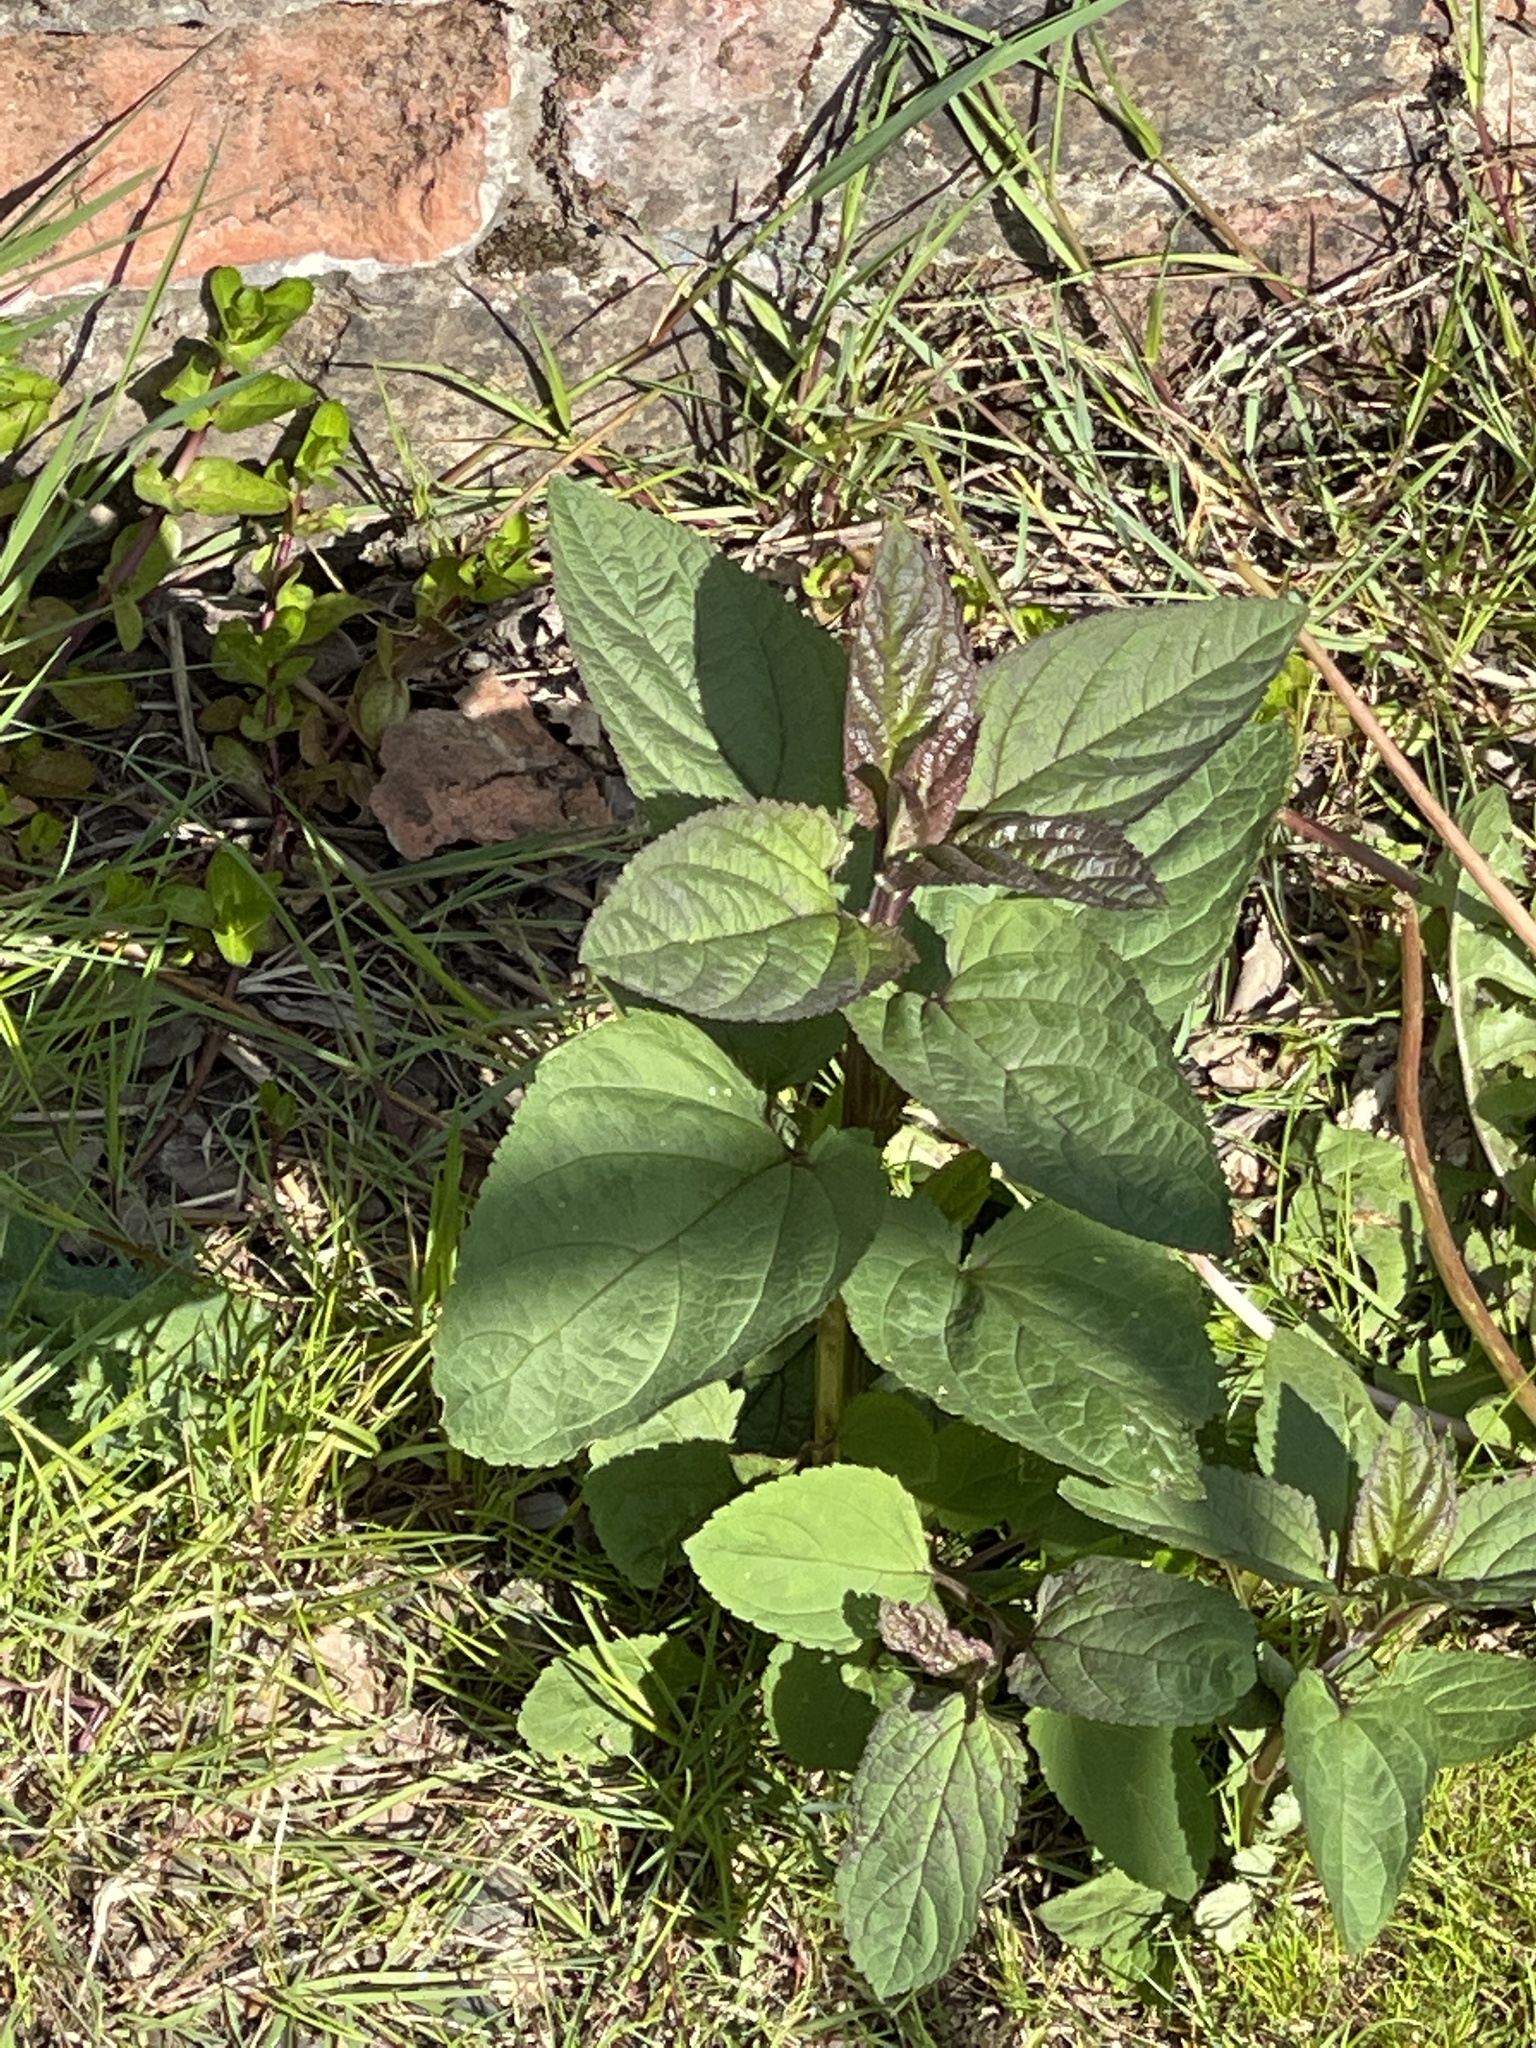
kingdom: Plantae
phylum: Tracheophyta
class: Magnoliopsida
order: Lamiales
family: Scrophulariaceae
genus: Scrophularia
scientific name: Scrophularia nodosa
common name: Common figwort
